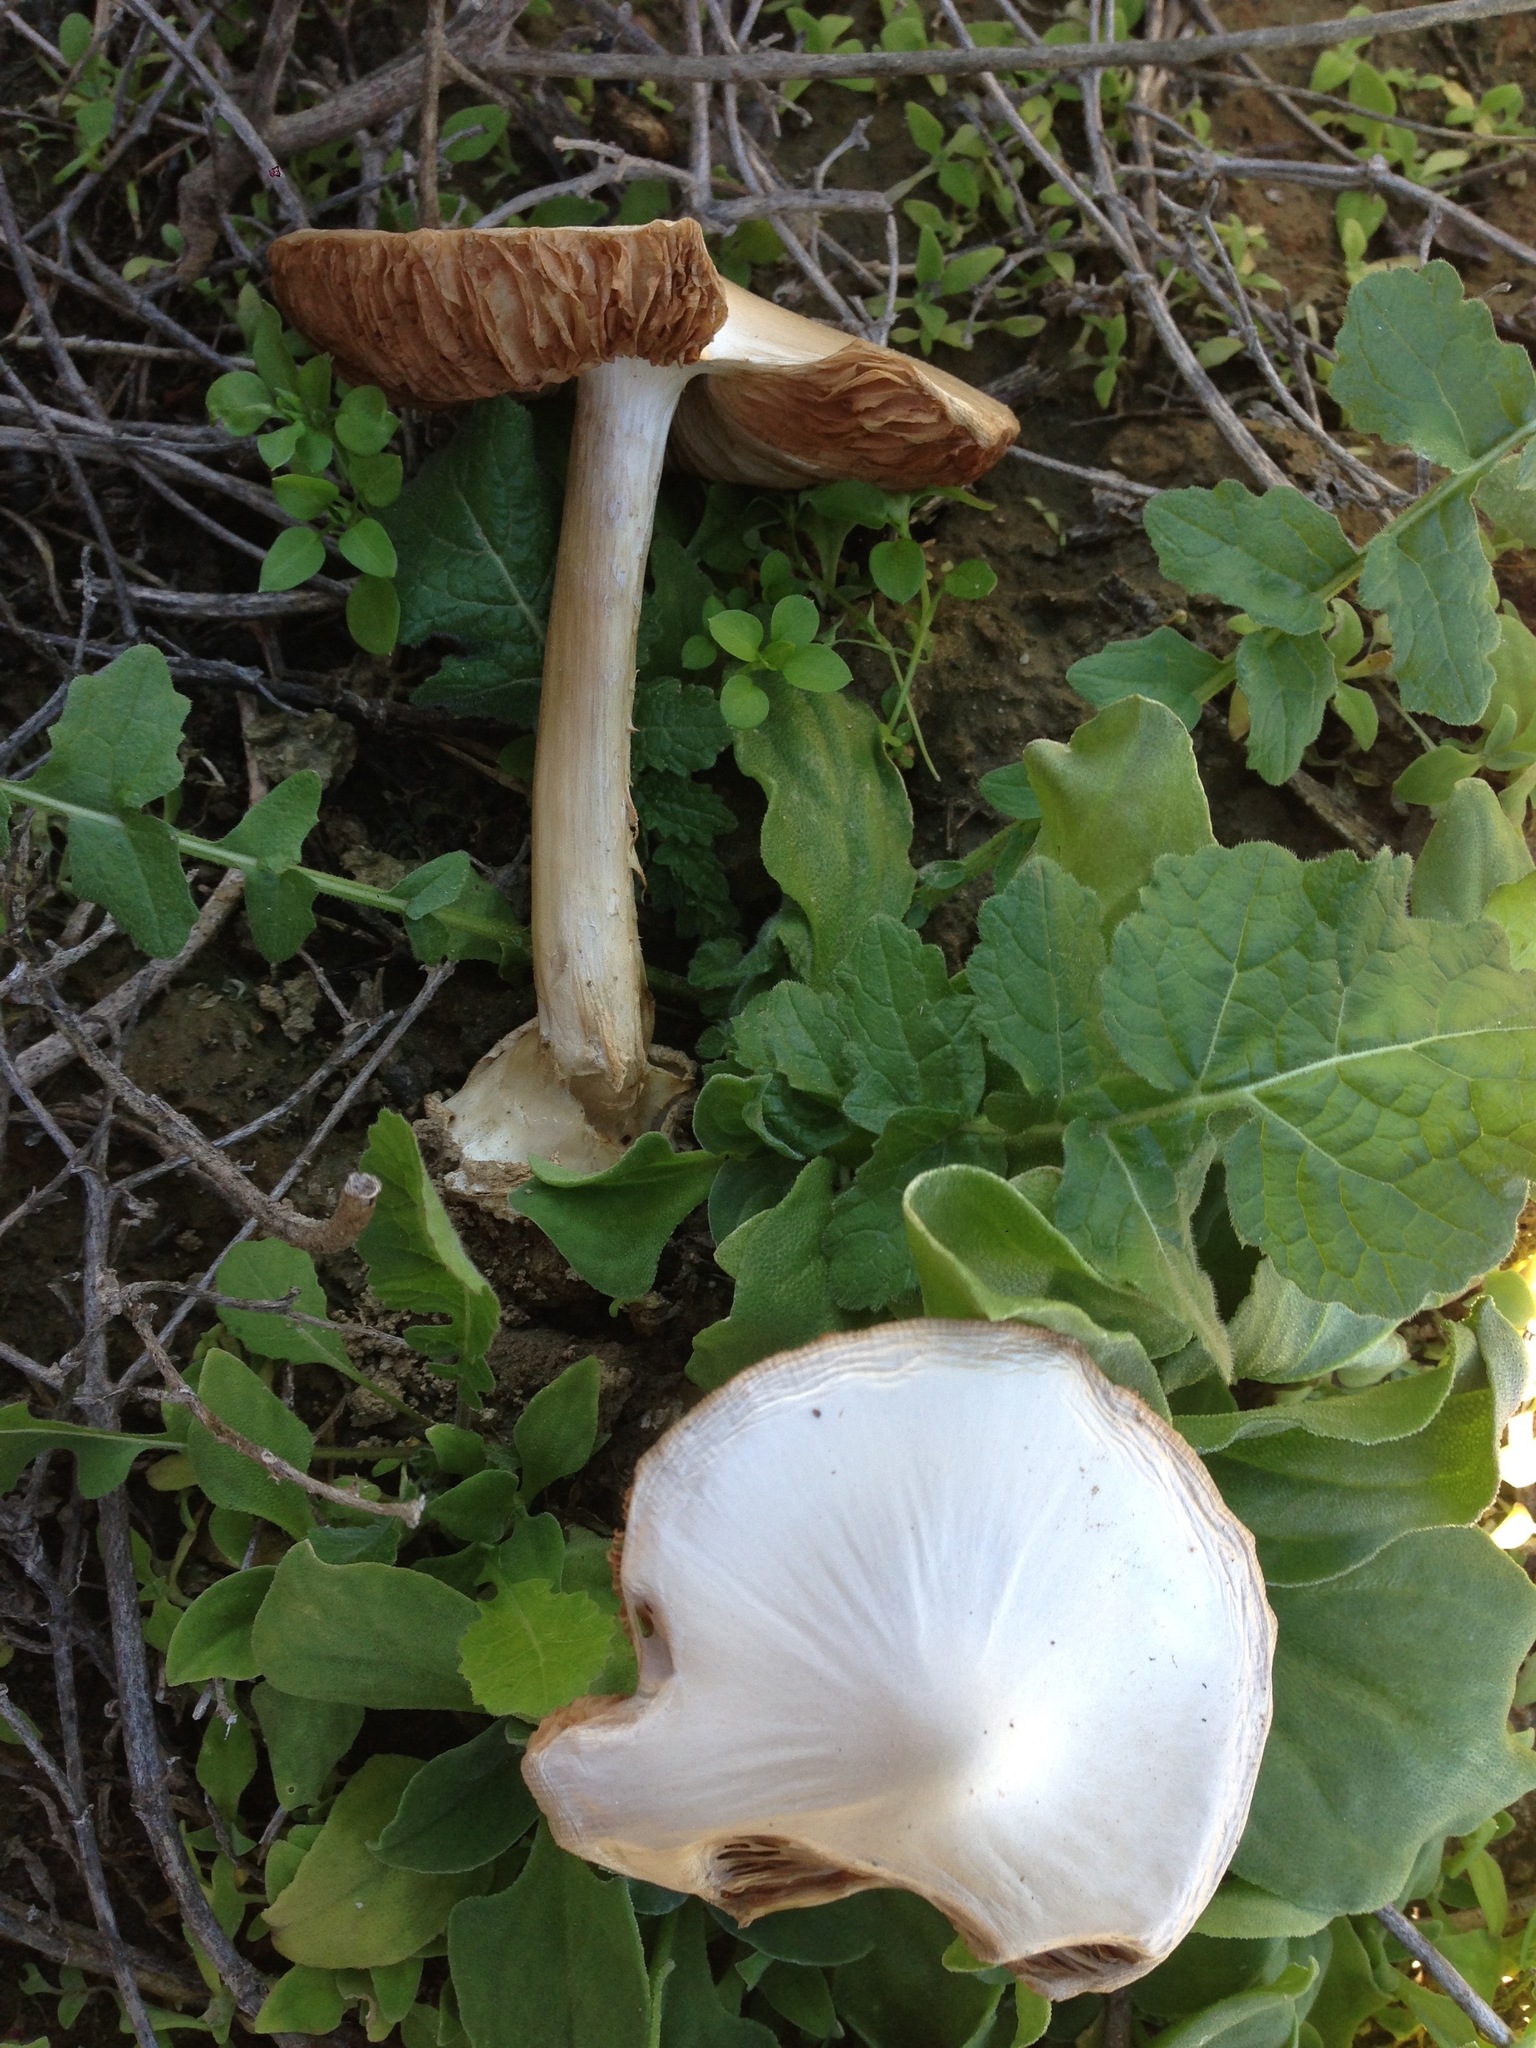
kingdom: Fungi
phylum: Basidiomycota
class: Agaricomycetes
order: Agaricales
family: Pluteaceae
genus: Volvopluteus
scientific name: Volvopluteus gloiocephalus
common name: Stubble rosegill
